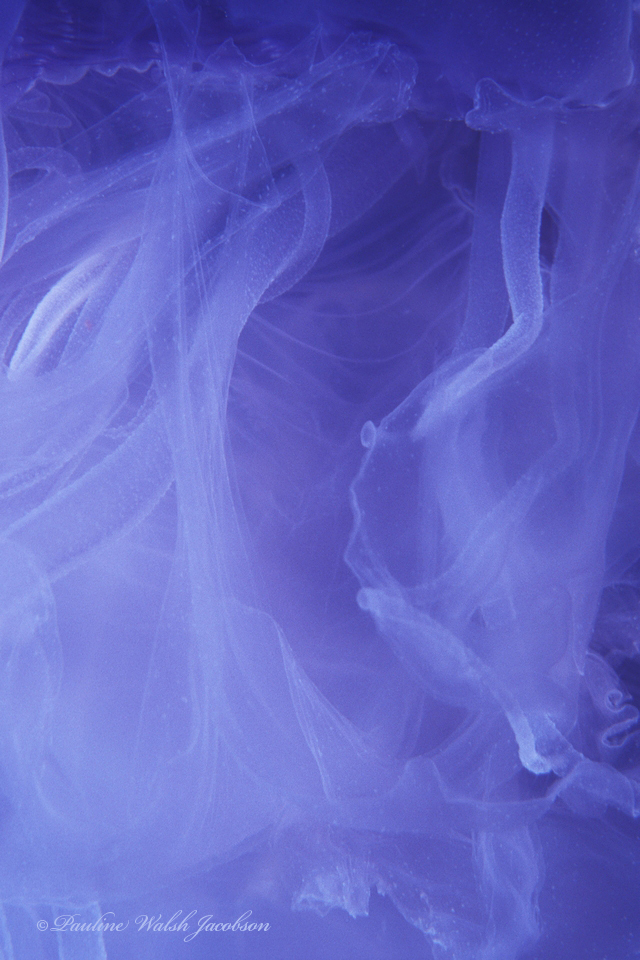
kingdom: Animalia
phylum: Cnidaria
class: Scyphozoa
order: Semaeostomeae
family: Ulmaridae
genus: Aurelia
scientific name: Aurelia marginalis
